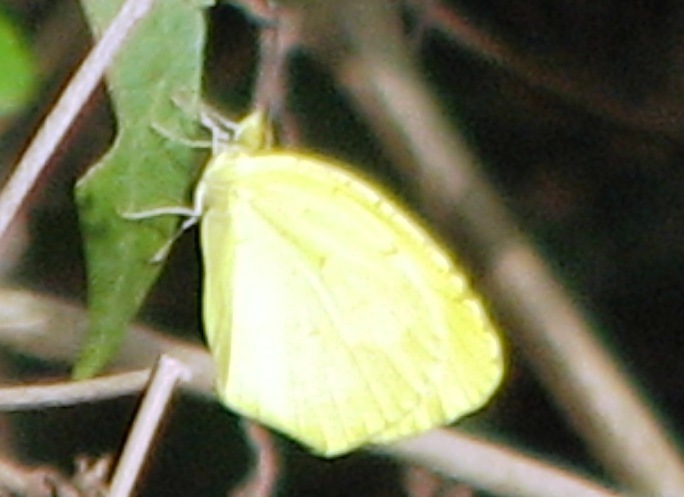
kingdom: Animalia
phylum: Arthropoda
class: Insecta
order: Lepidoptera
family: Pieridae
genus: Abaeis
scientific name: Abaeis boisduvaliana
